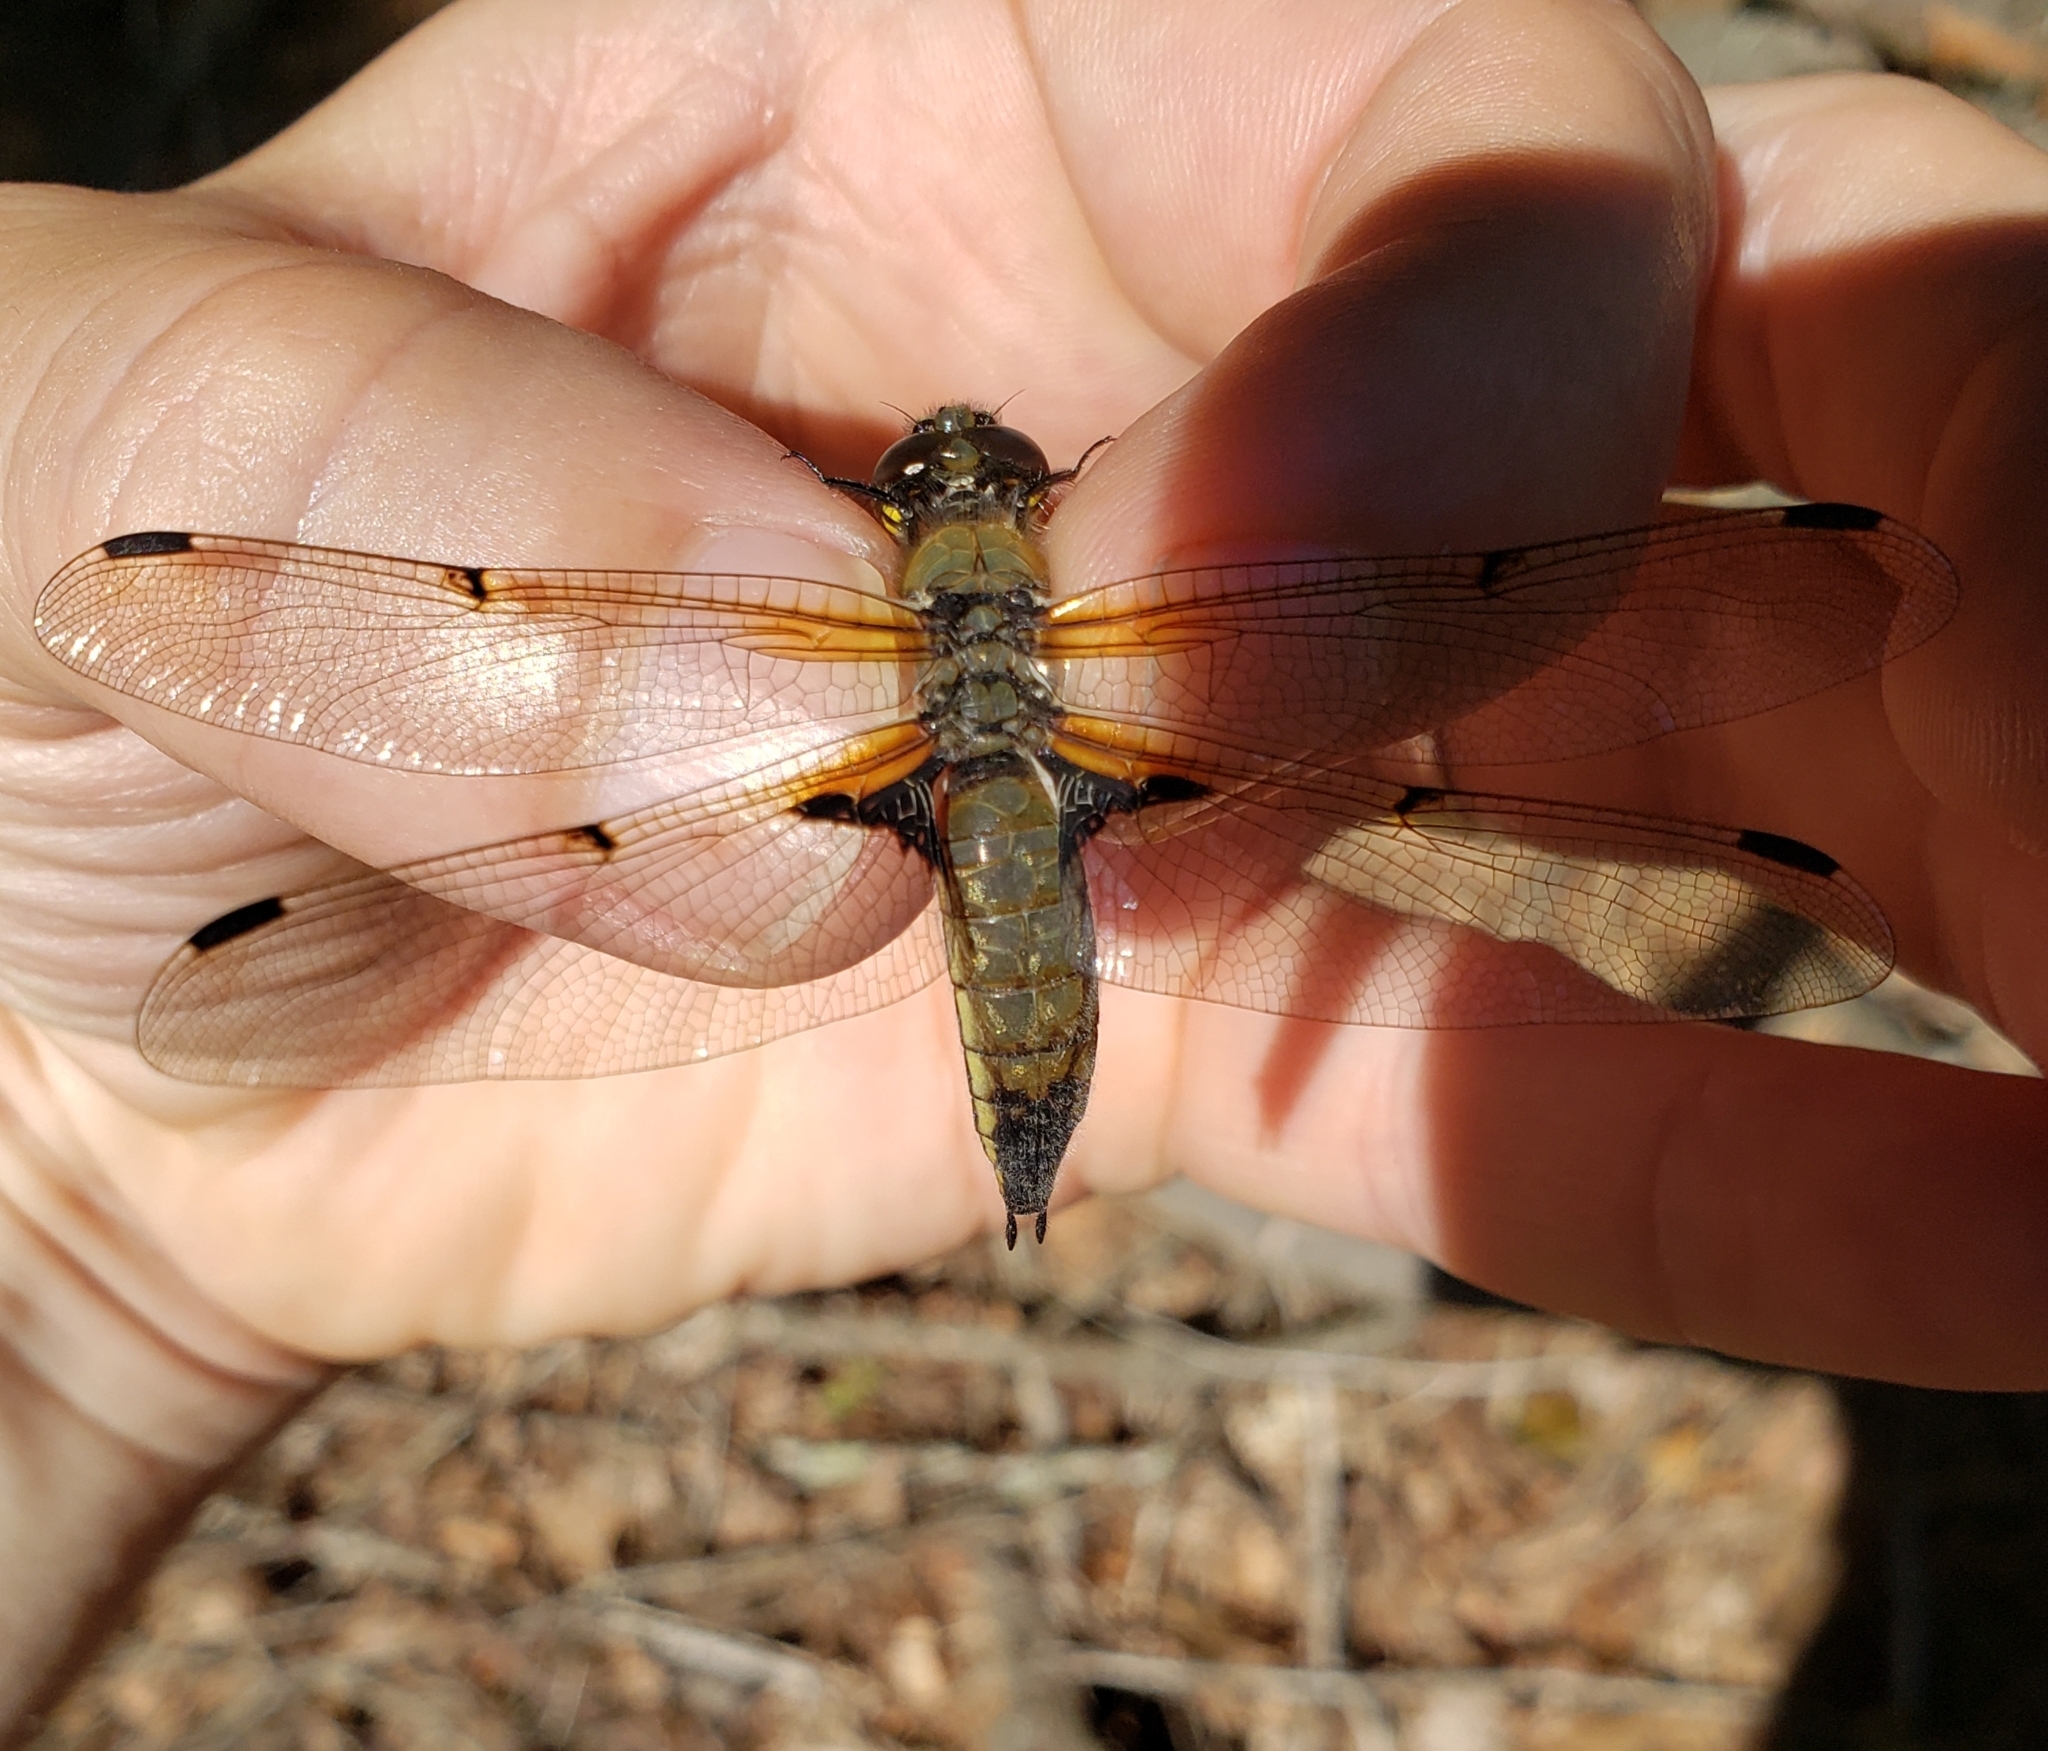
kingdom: Animalia
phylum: Arthropoda
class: Insecta
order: Odonata
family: Libellulidae
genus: Libellula
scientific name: Libellula quadrimaculata
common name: Four-spotted chaser
